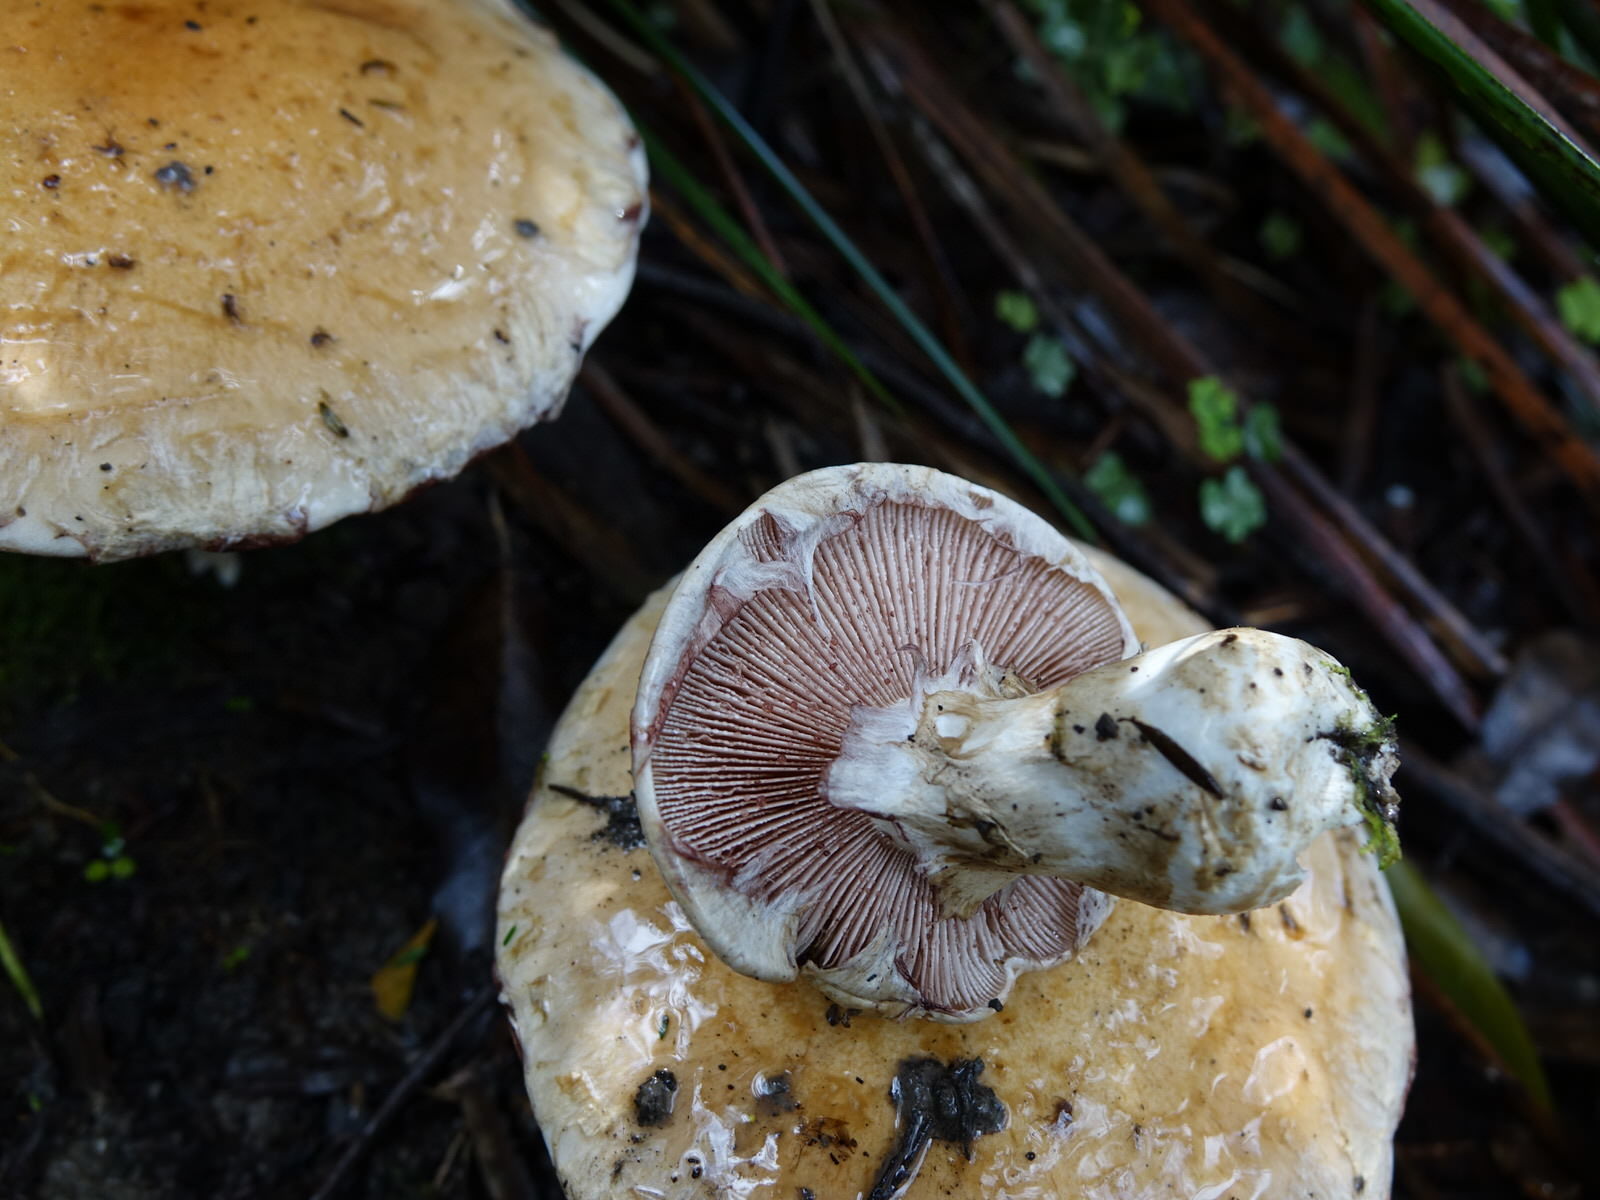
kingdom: Fungi
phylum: Basidiomycota
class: Agaricomycetes
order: Agaricales
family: Hymenogastraceae
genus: Hebeloma
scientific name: Hebeloma victoriense
